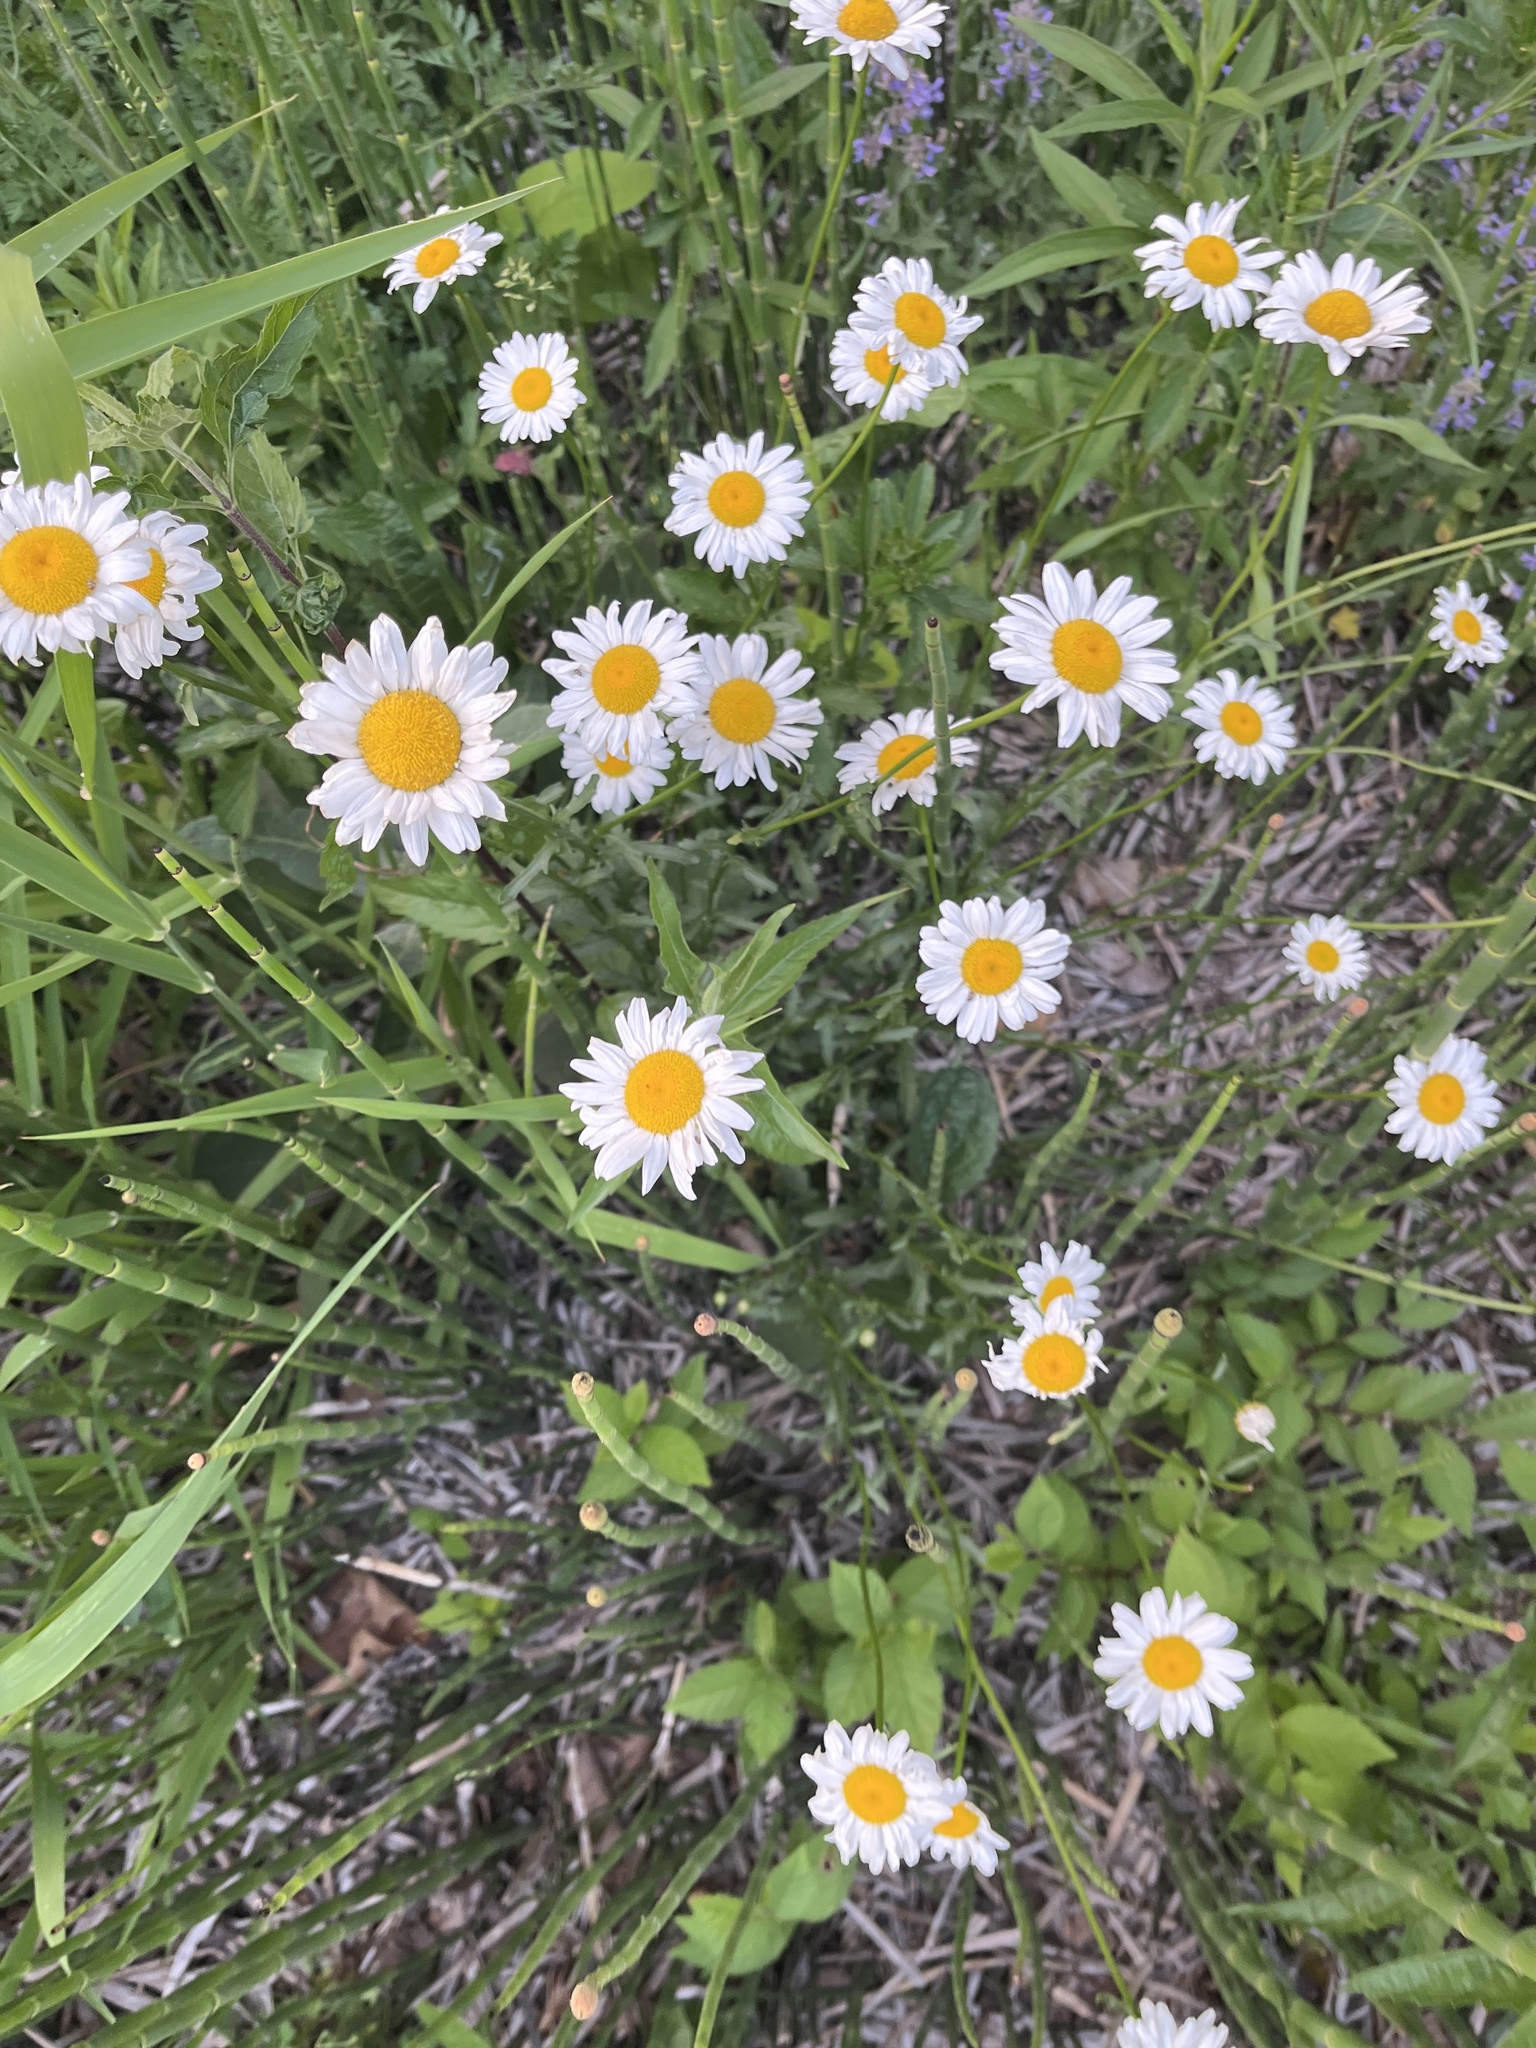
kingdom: Plantae
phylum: Tracheophyta
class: Magnoliopsida
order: Asterales
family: Asteraceae
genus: Leucanthemum
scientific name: Leucanthemum vulgare
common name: Oxeye daisy
